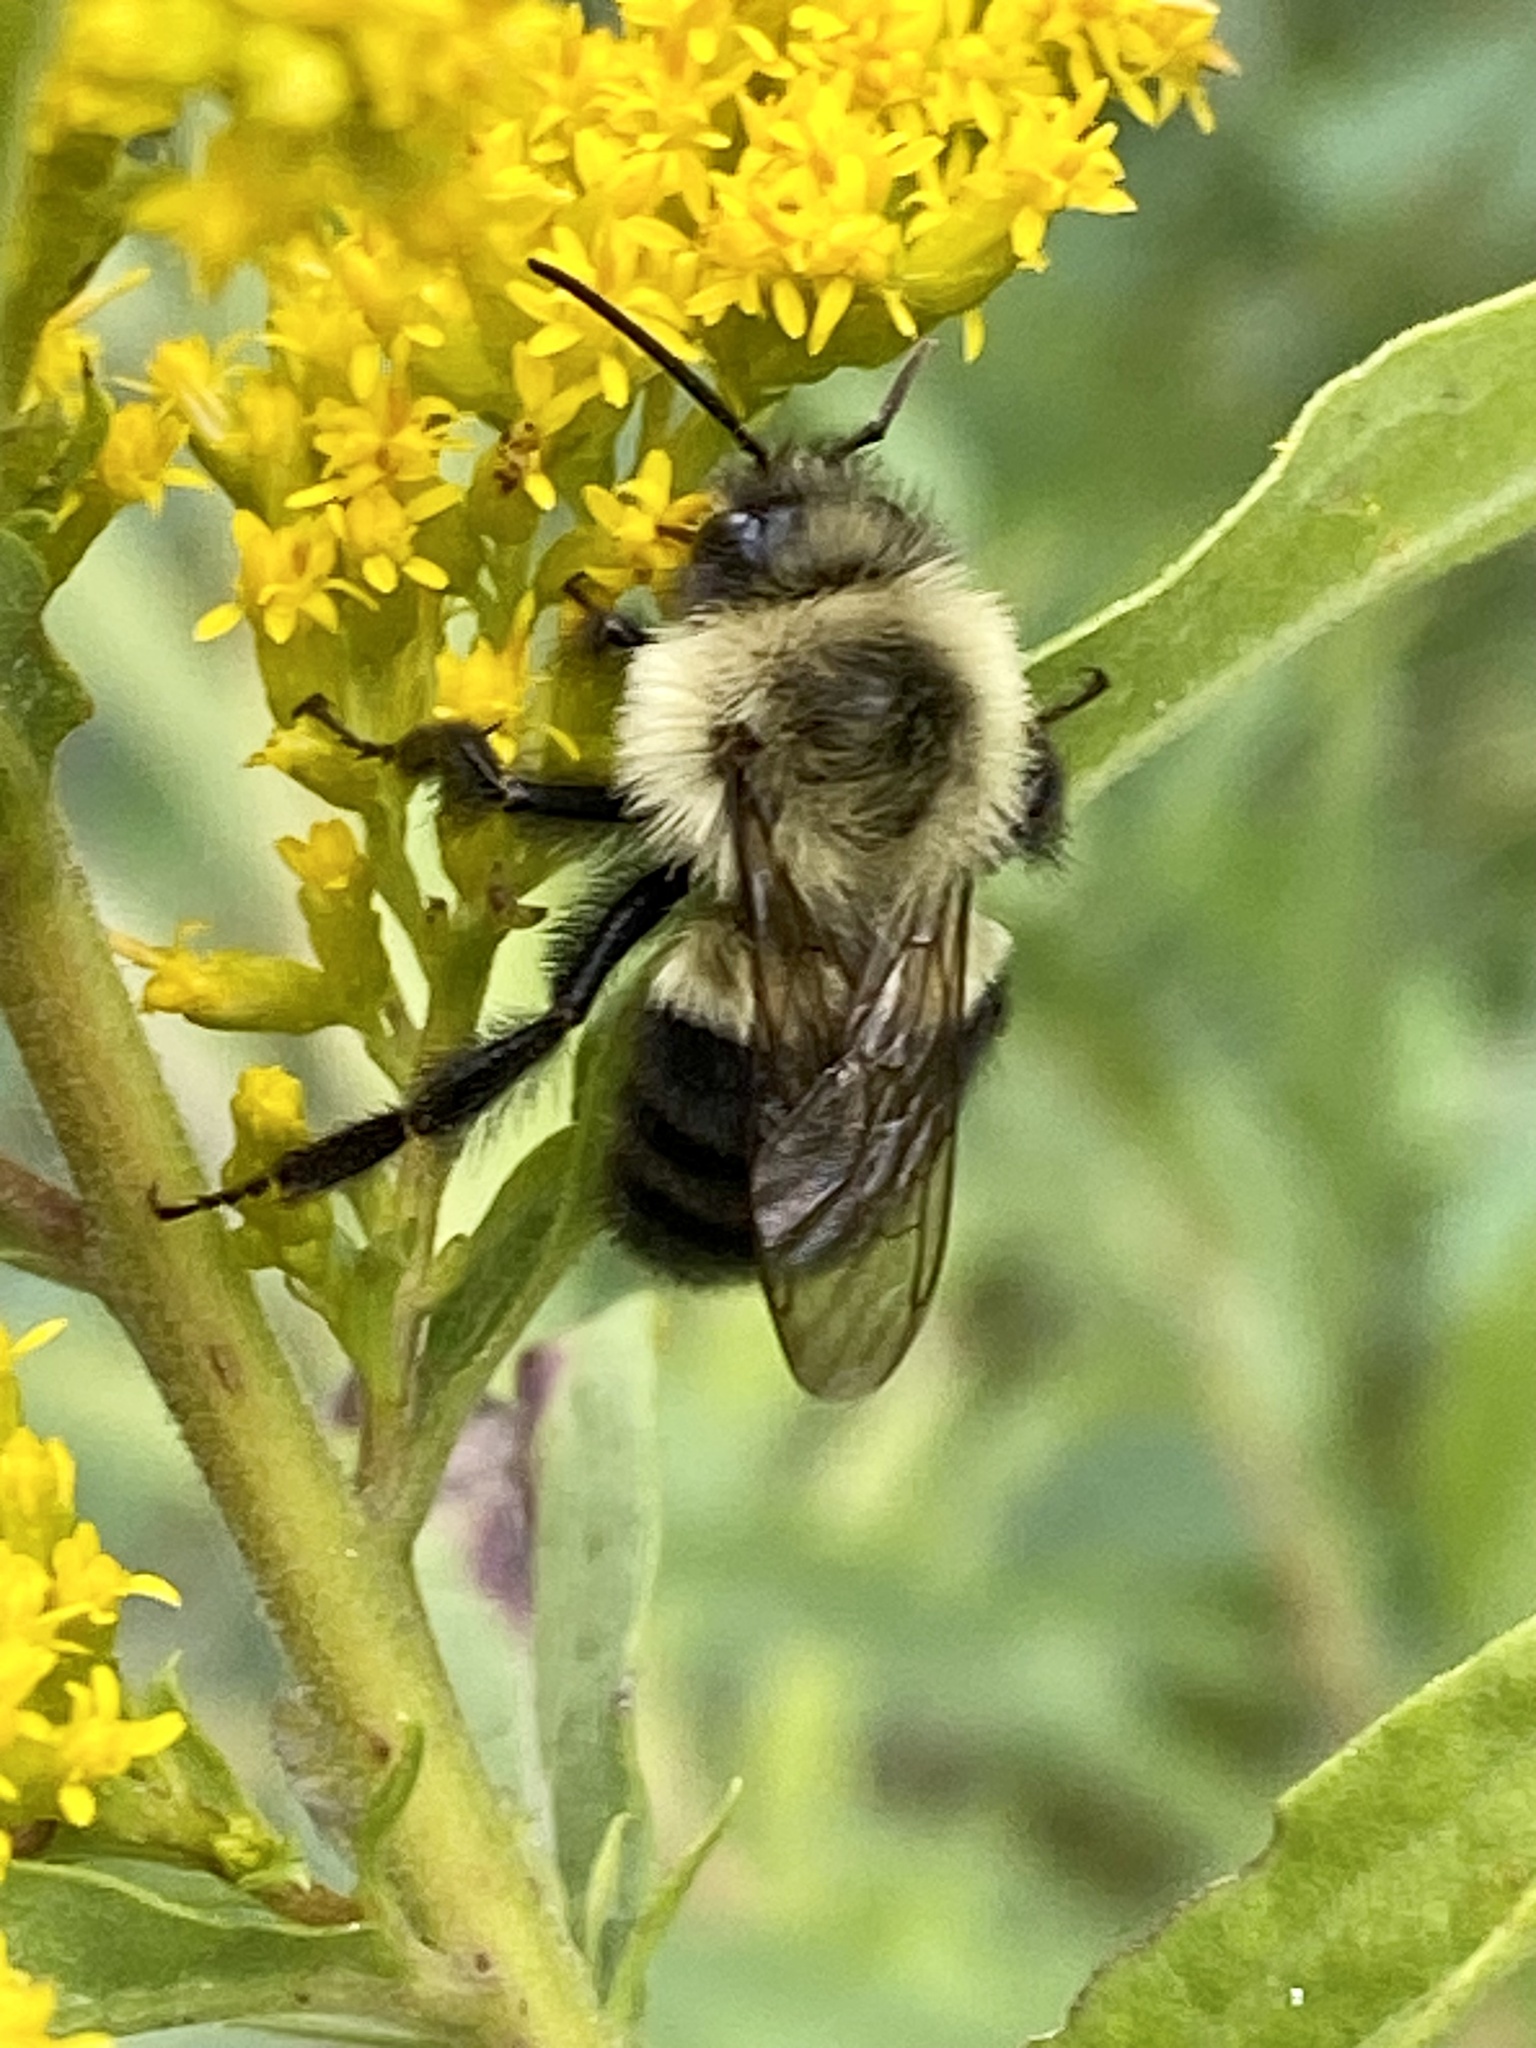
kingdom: Animalia
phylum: Arthropoda
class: Insecta
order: Hymenoptera
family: Apidae
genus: Bombus
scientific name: Bombus impatiens
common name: Common eastern bumble bee
